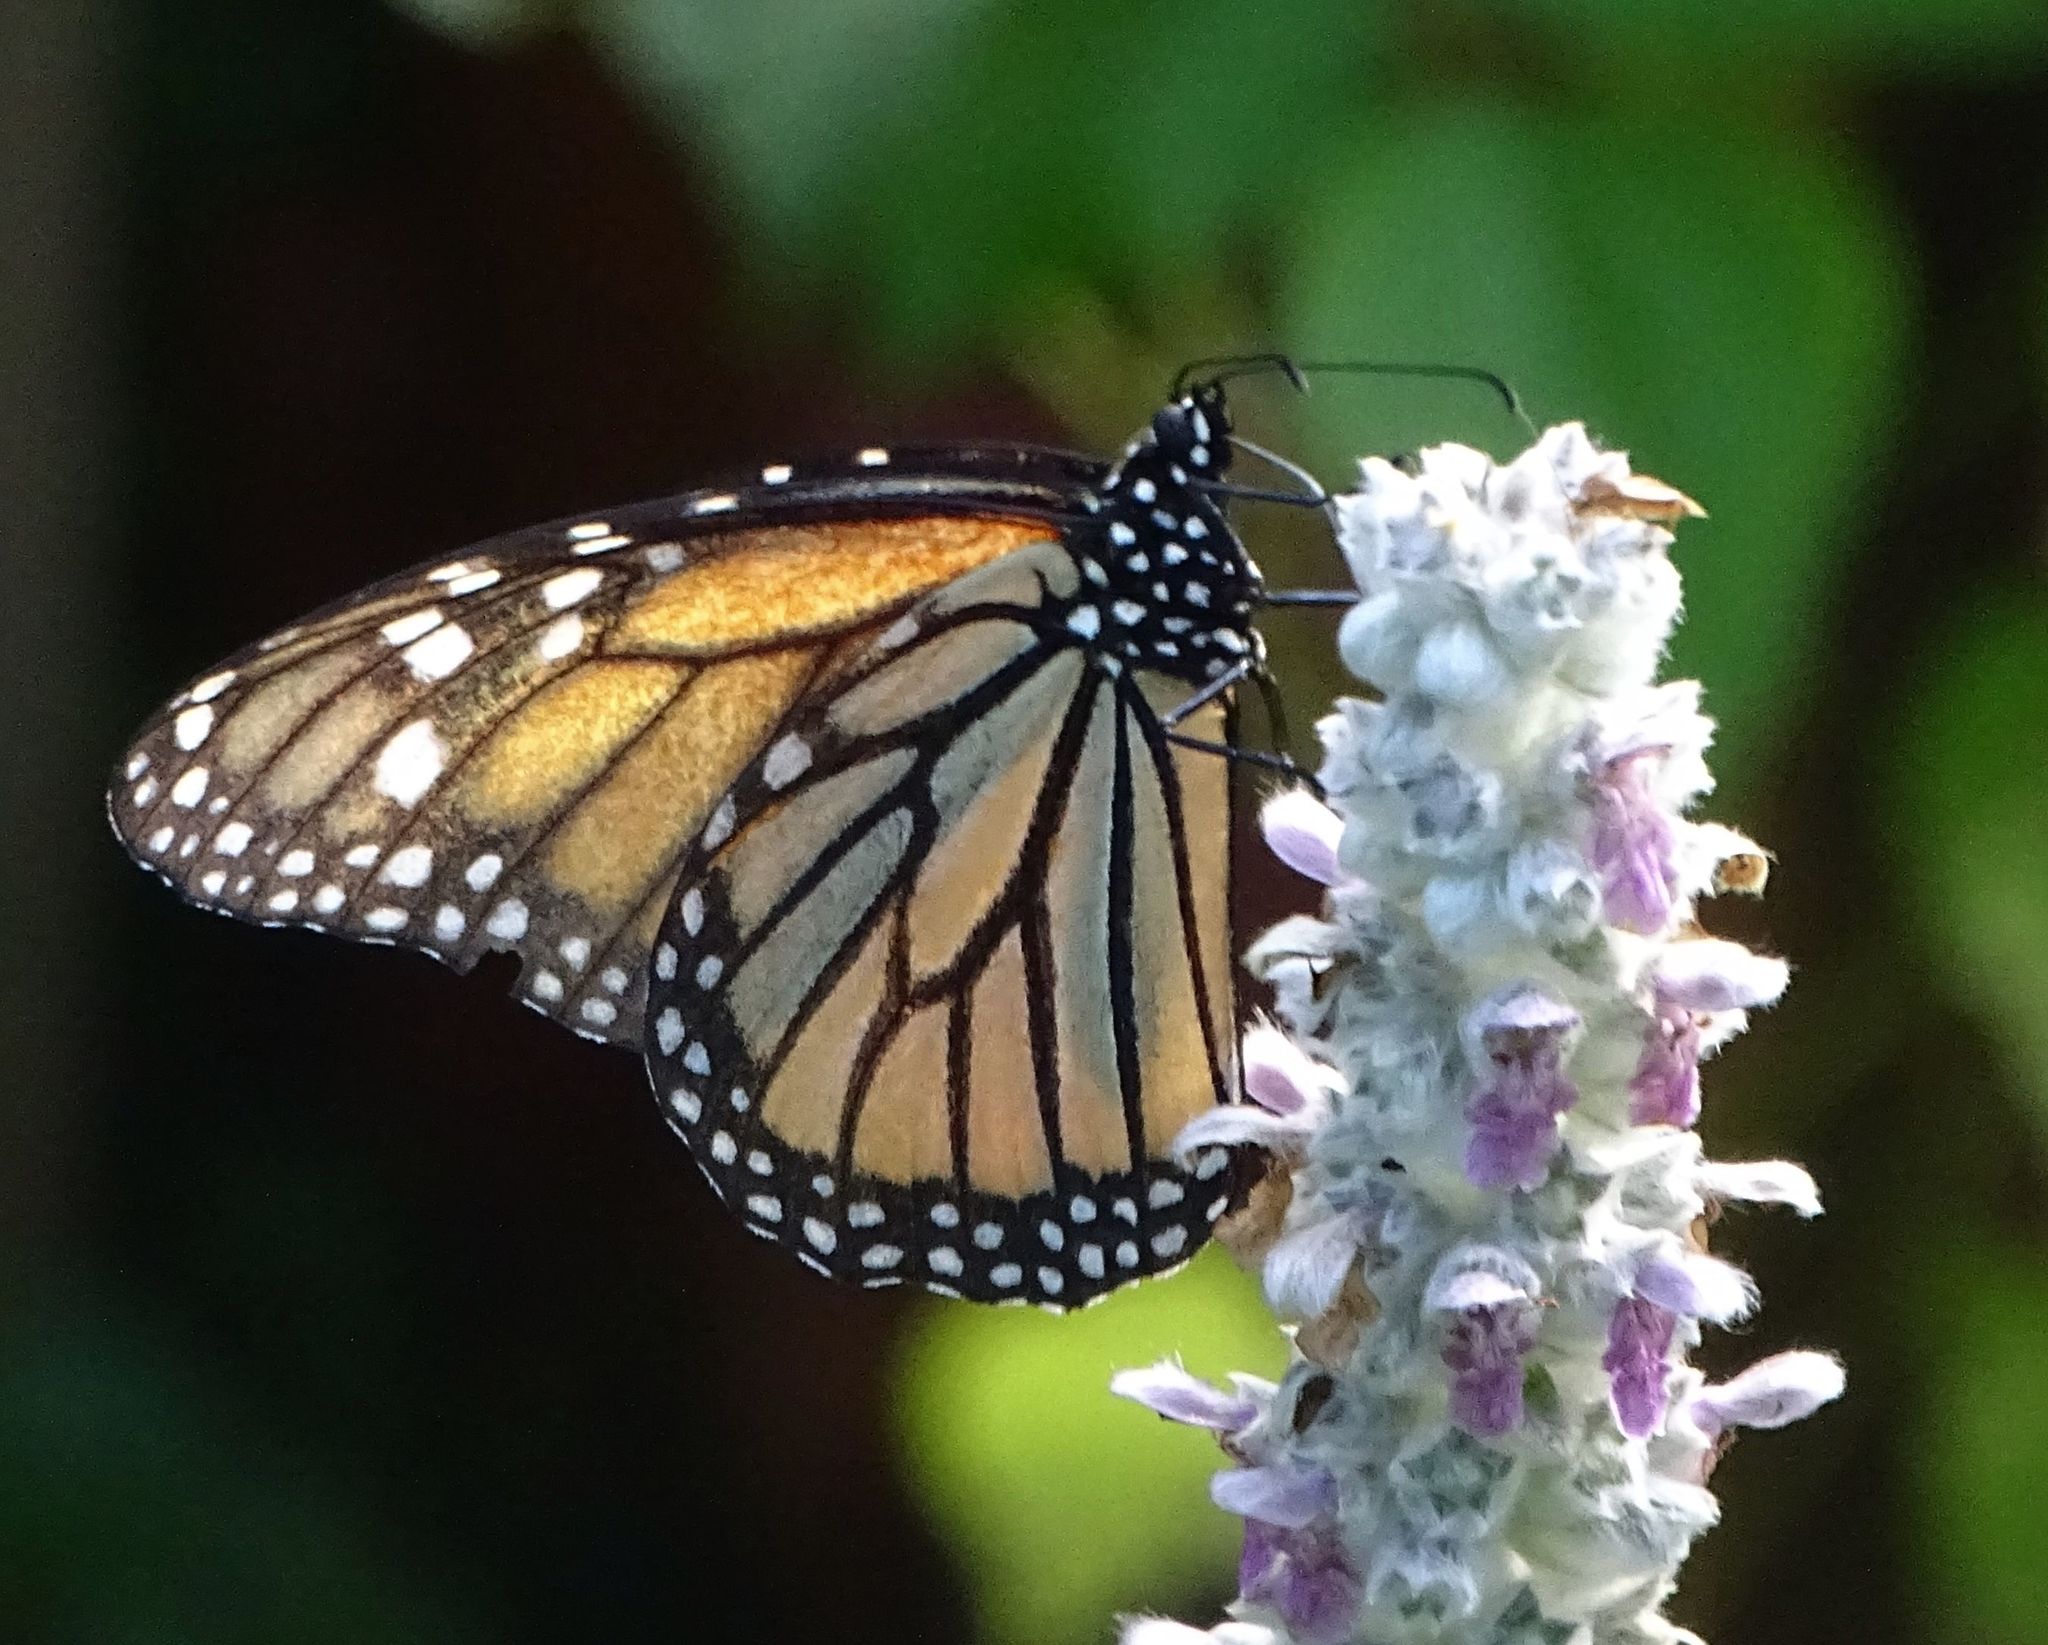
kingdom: Animalia
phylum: Arthropoda
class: Insecta
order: Lepidoptera
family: Nymphalidae
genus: Danaus
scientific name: Danaus plexippus
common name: Monarch
